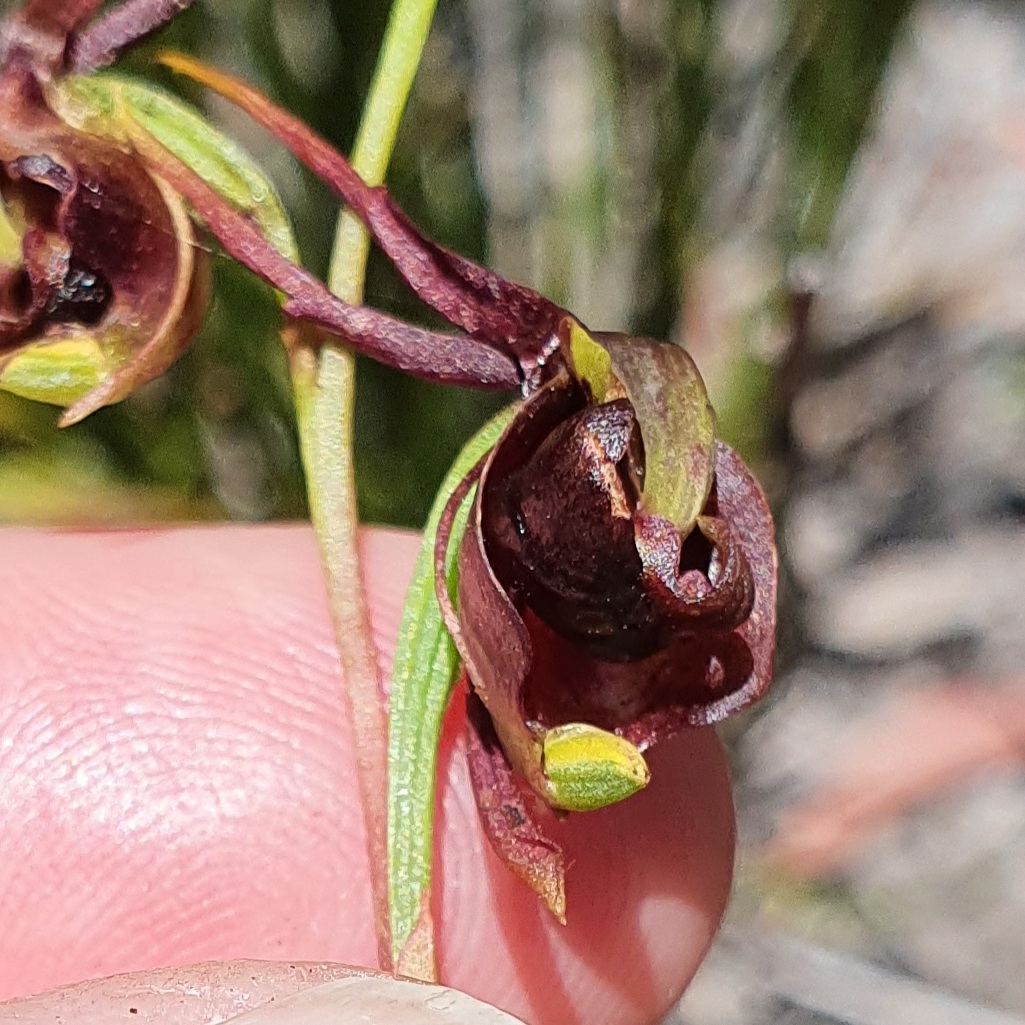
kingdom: Plantae
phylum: Tracheophyta
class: Liliopsida
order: Asparagales
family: Orchidaceae
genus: Caleana
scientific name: Caleana major
